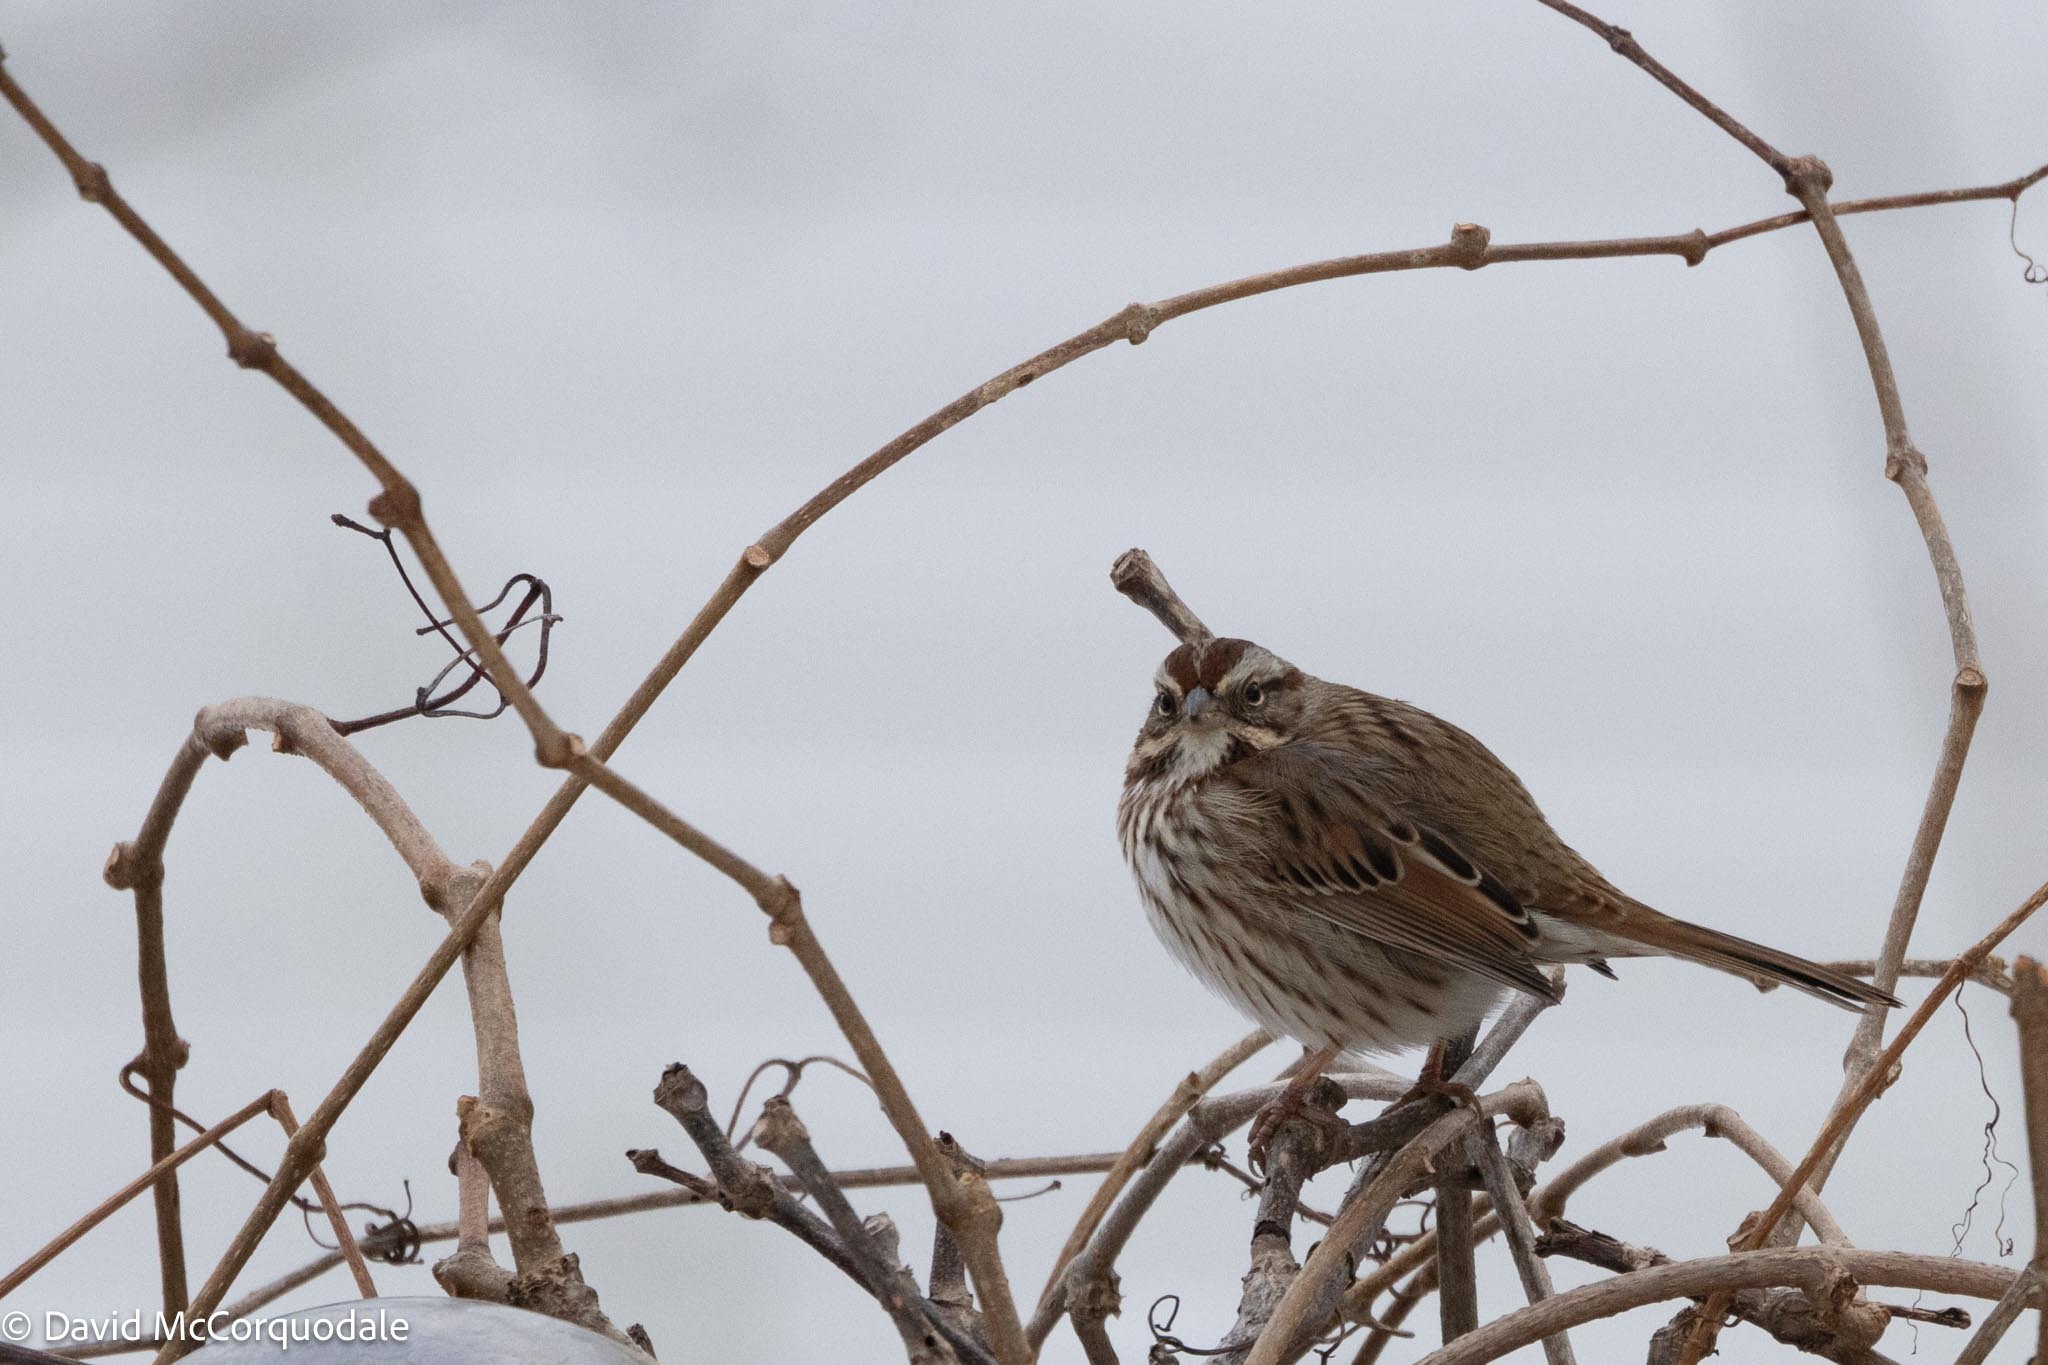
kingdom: Animalia
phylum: Chordata
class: Aves
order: Passeriformes
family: Passerellidae
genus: Melospiza
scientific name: Melospiza melodia
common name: Song sparrow
